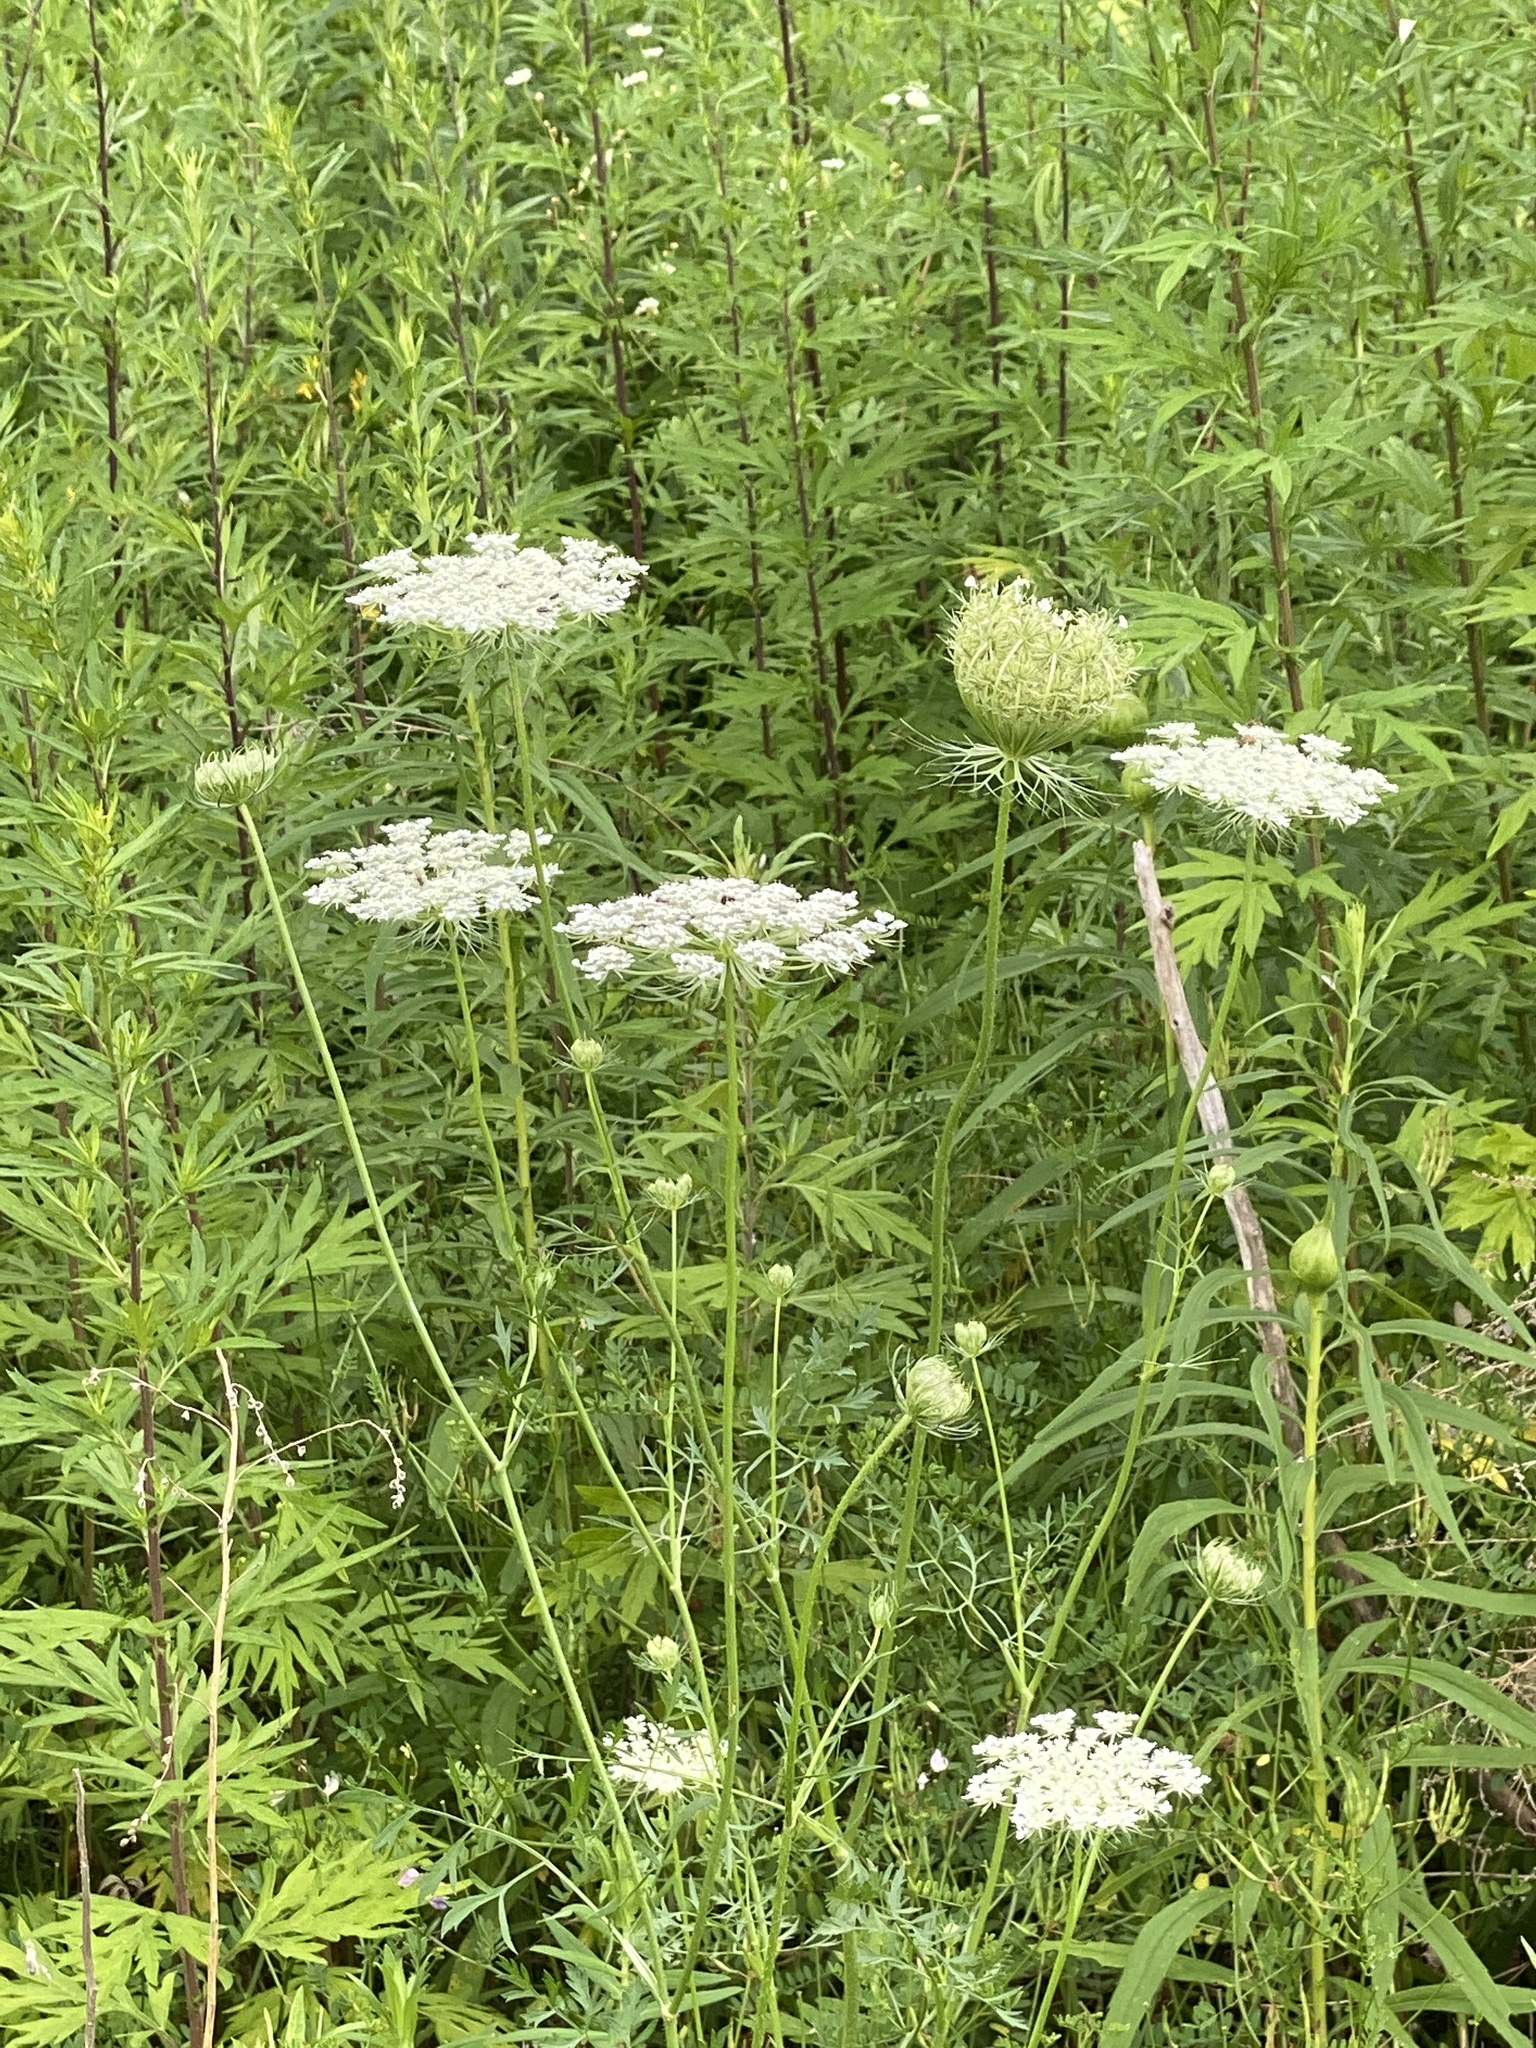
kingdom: Plantae
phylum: Tracheophyta
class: Magnoliopsida
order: Apiales
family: Apiaceae
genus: Daucus
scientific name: Daucus carota
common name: Wild carrot
